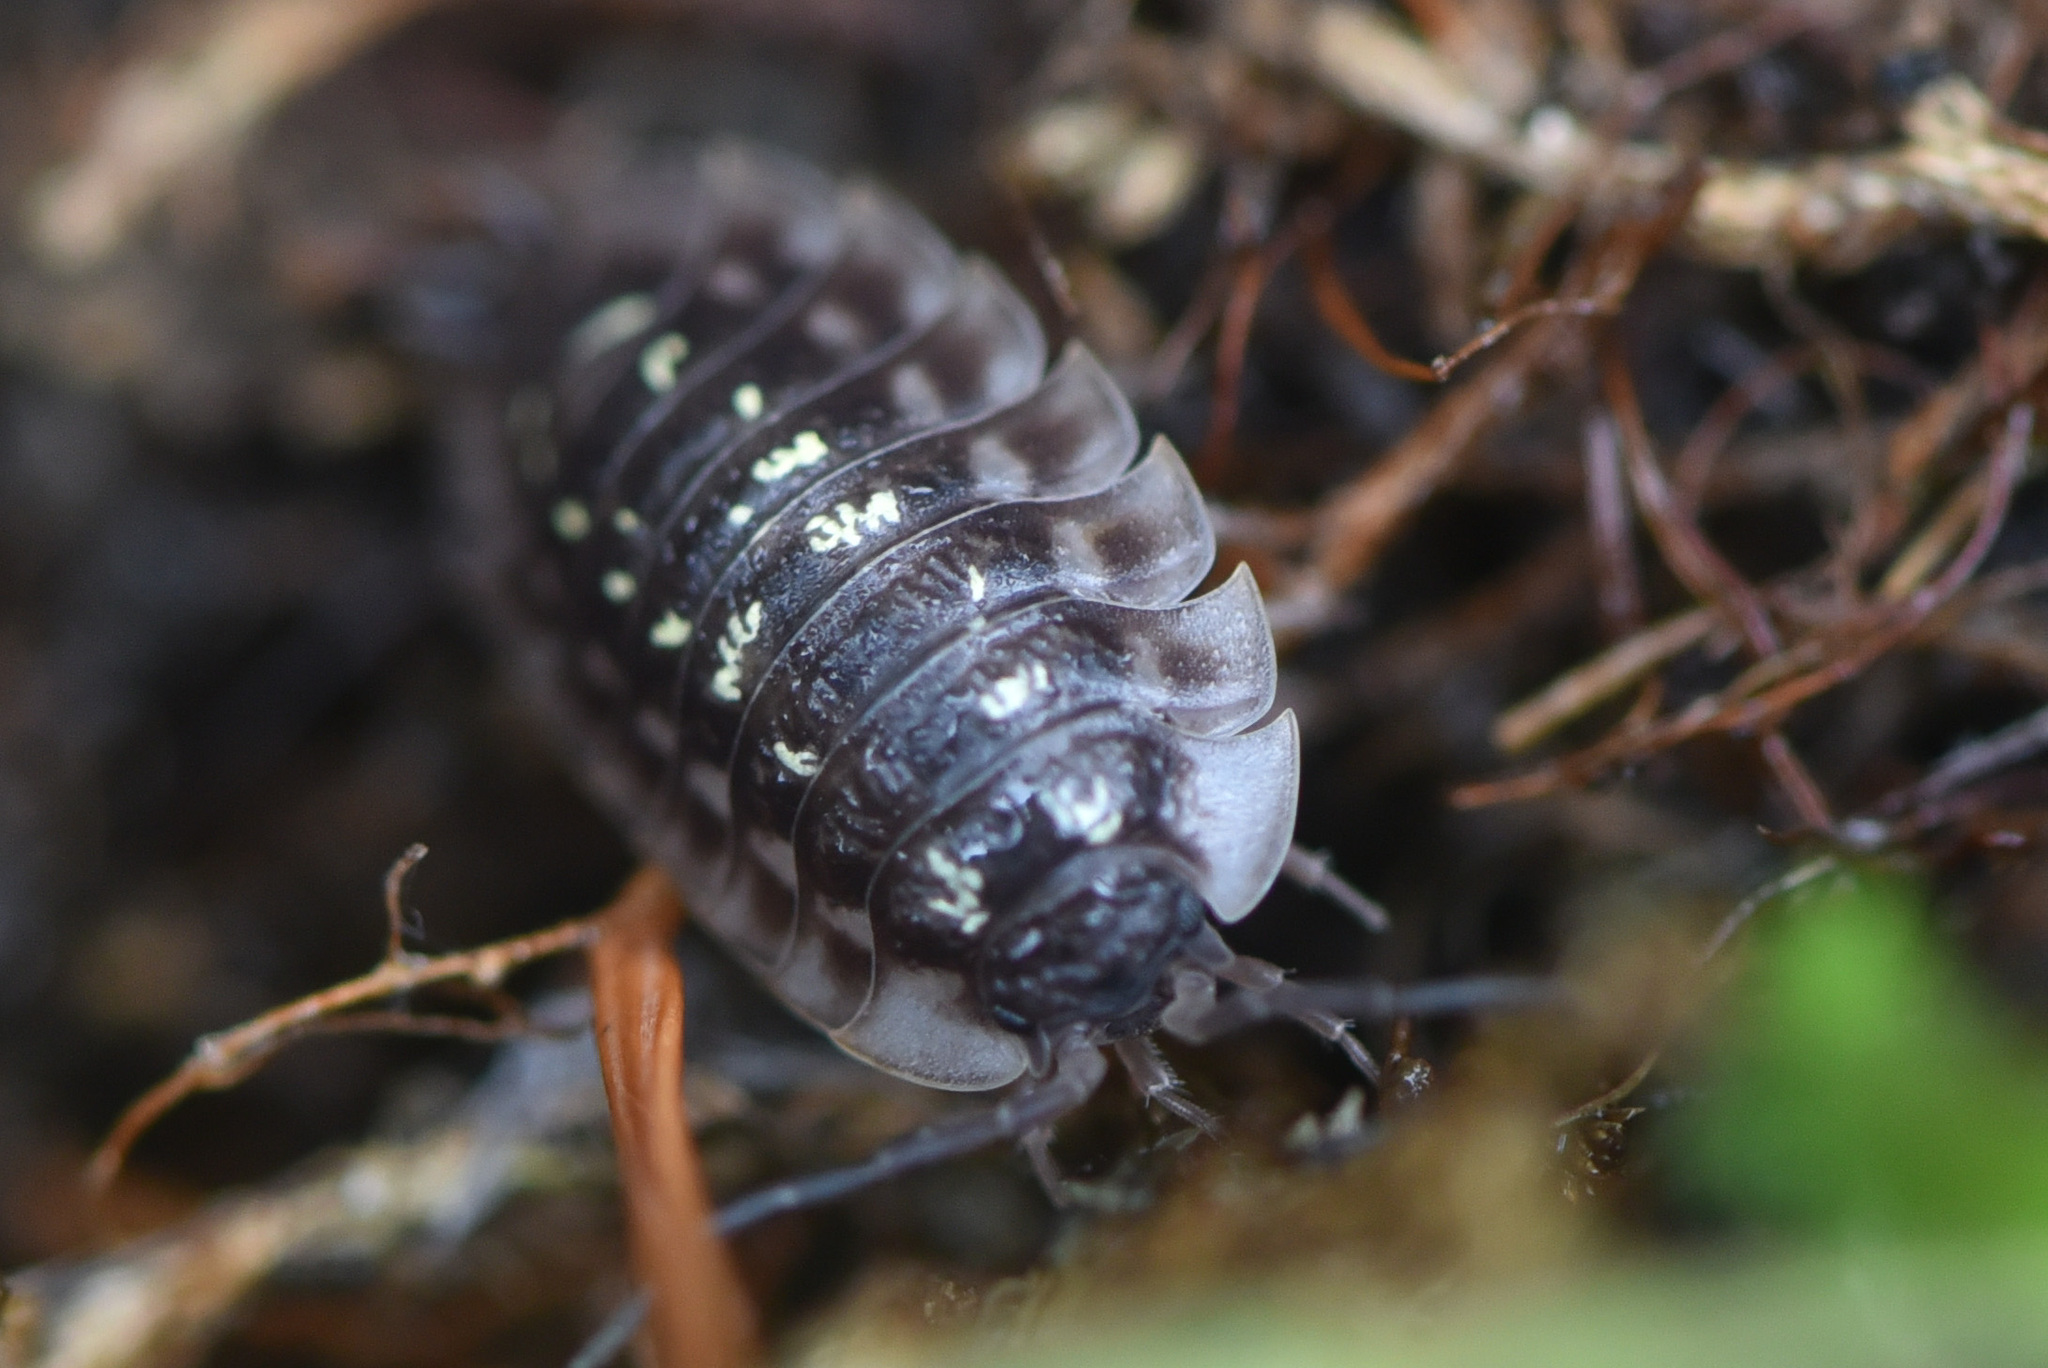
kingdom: Animalia
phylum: Arthropoda
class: Malacostraca
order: Isopoda
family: Oniscidae
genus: Oniscus
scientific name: Oniscus asellus
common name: Common shiny woodlouse
